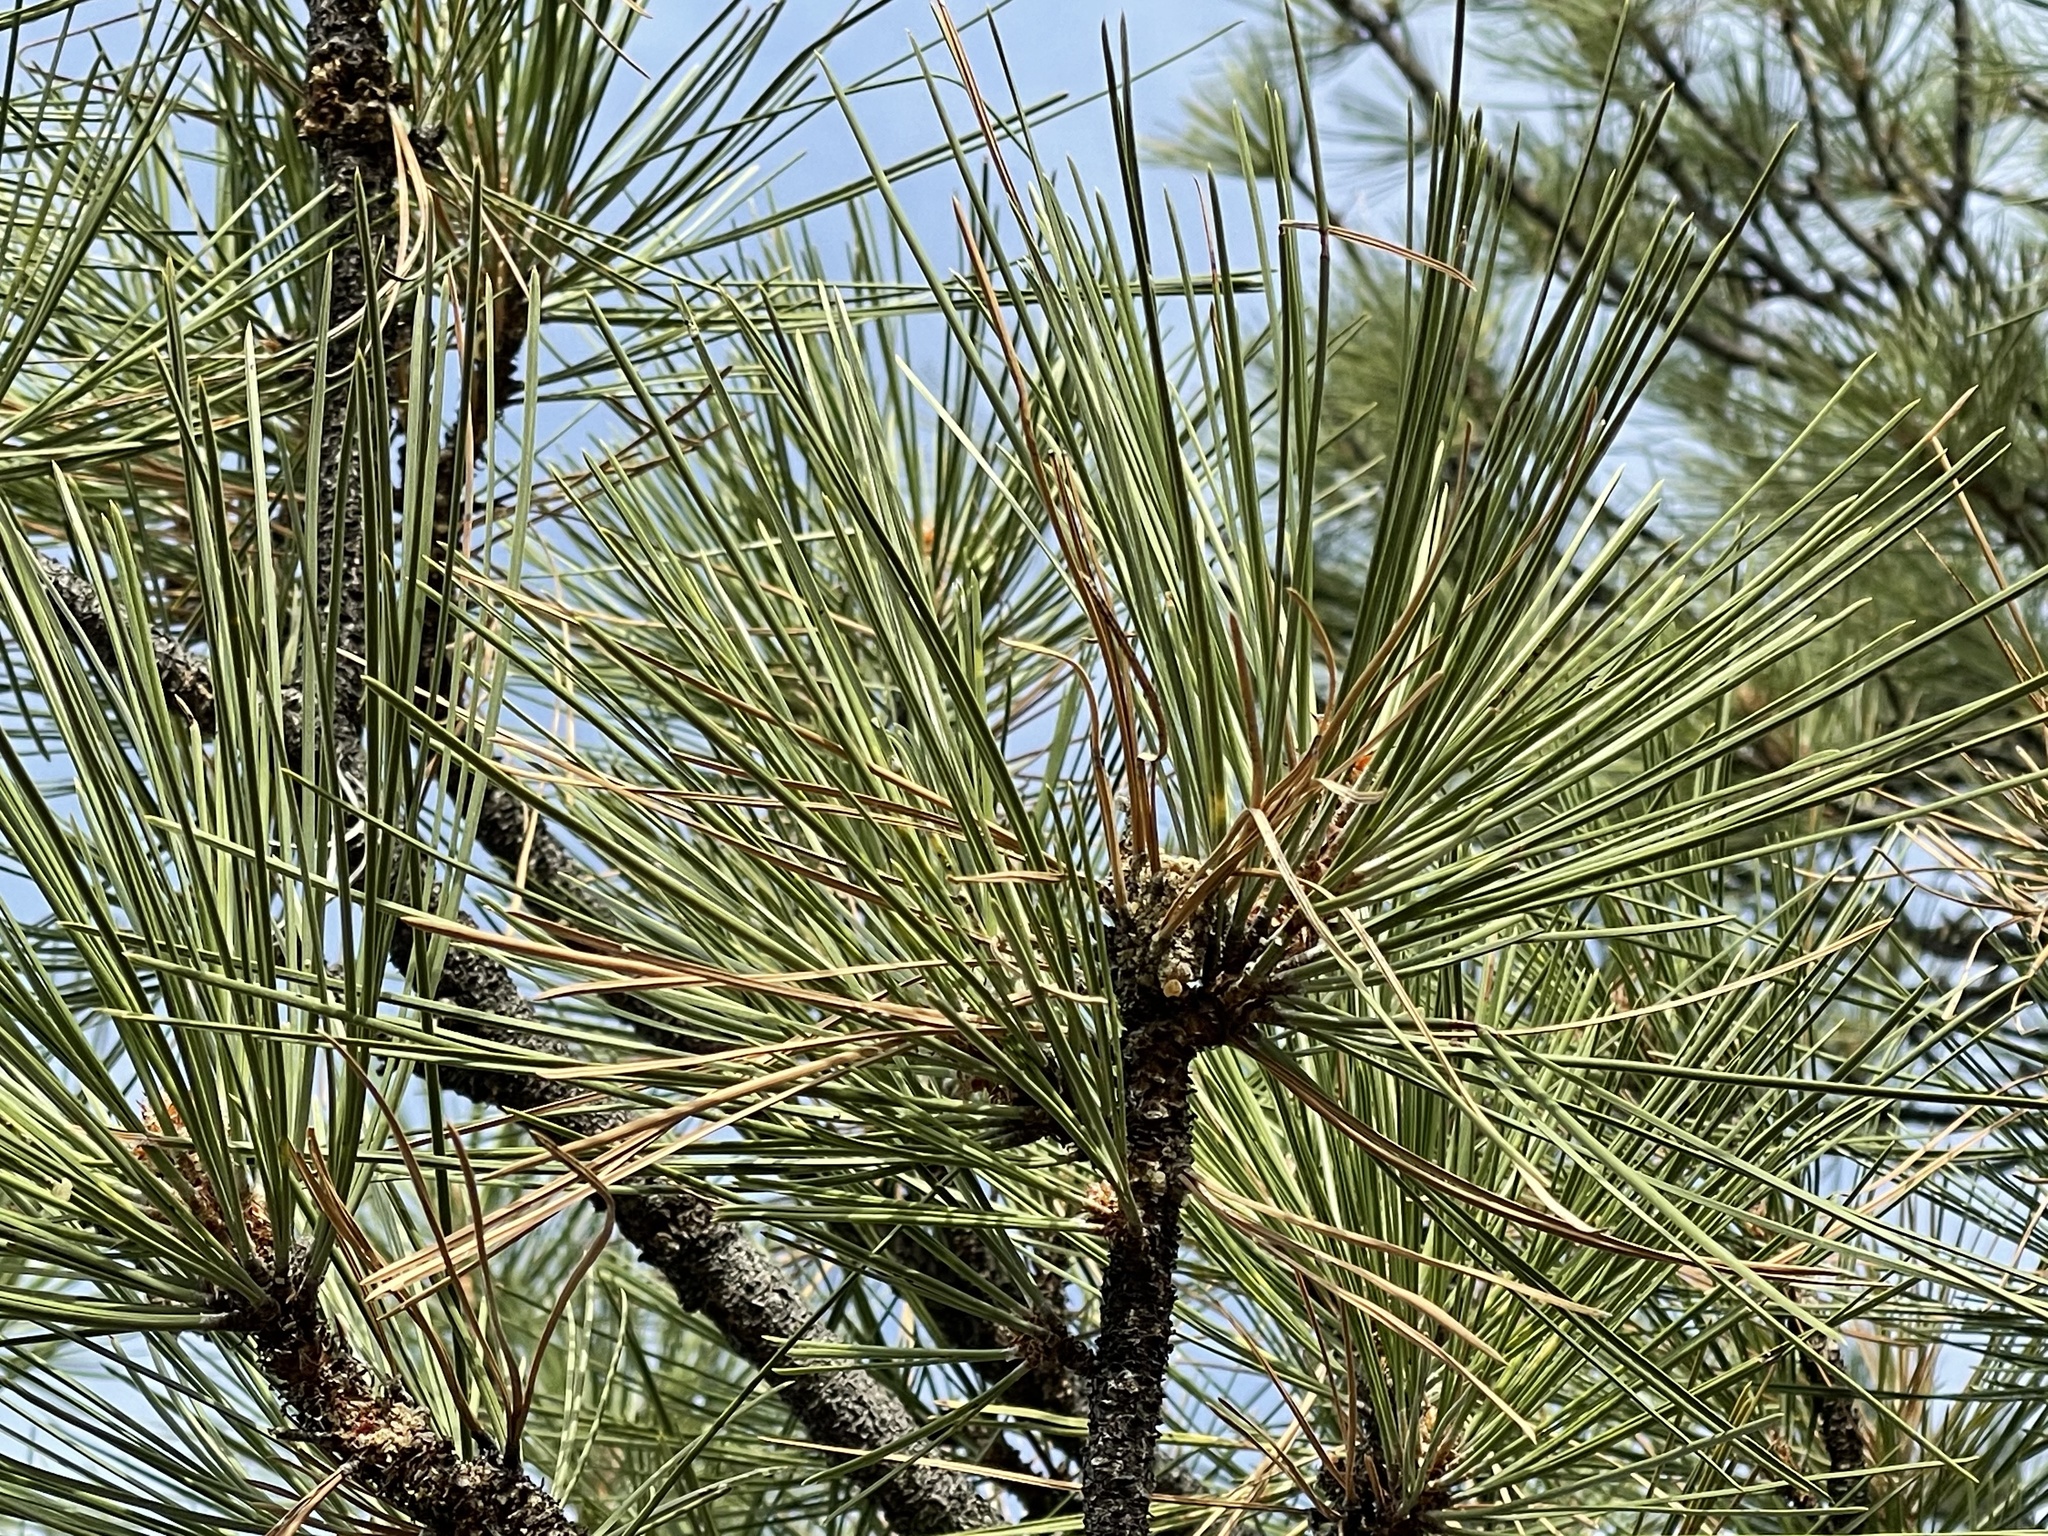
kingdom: Plantae
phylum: Tracheophyta
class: Pinopsida
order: Pinales
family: Pinaceae
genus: Pinus
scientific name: Pinus ponderosa
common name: Western yellow-pine
